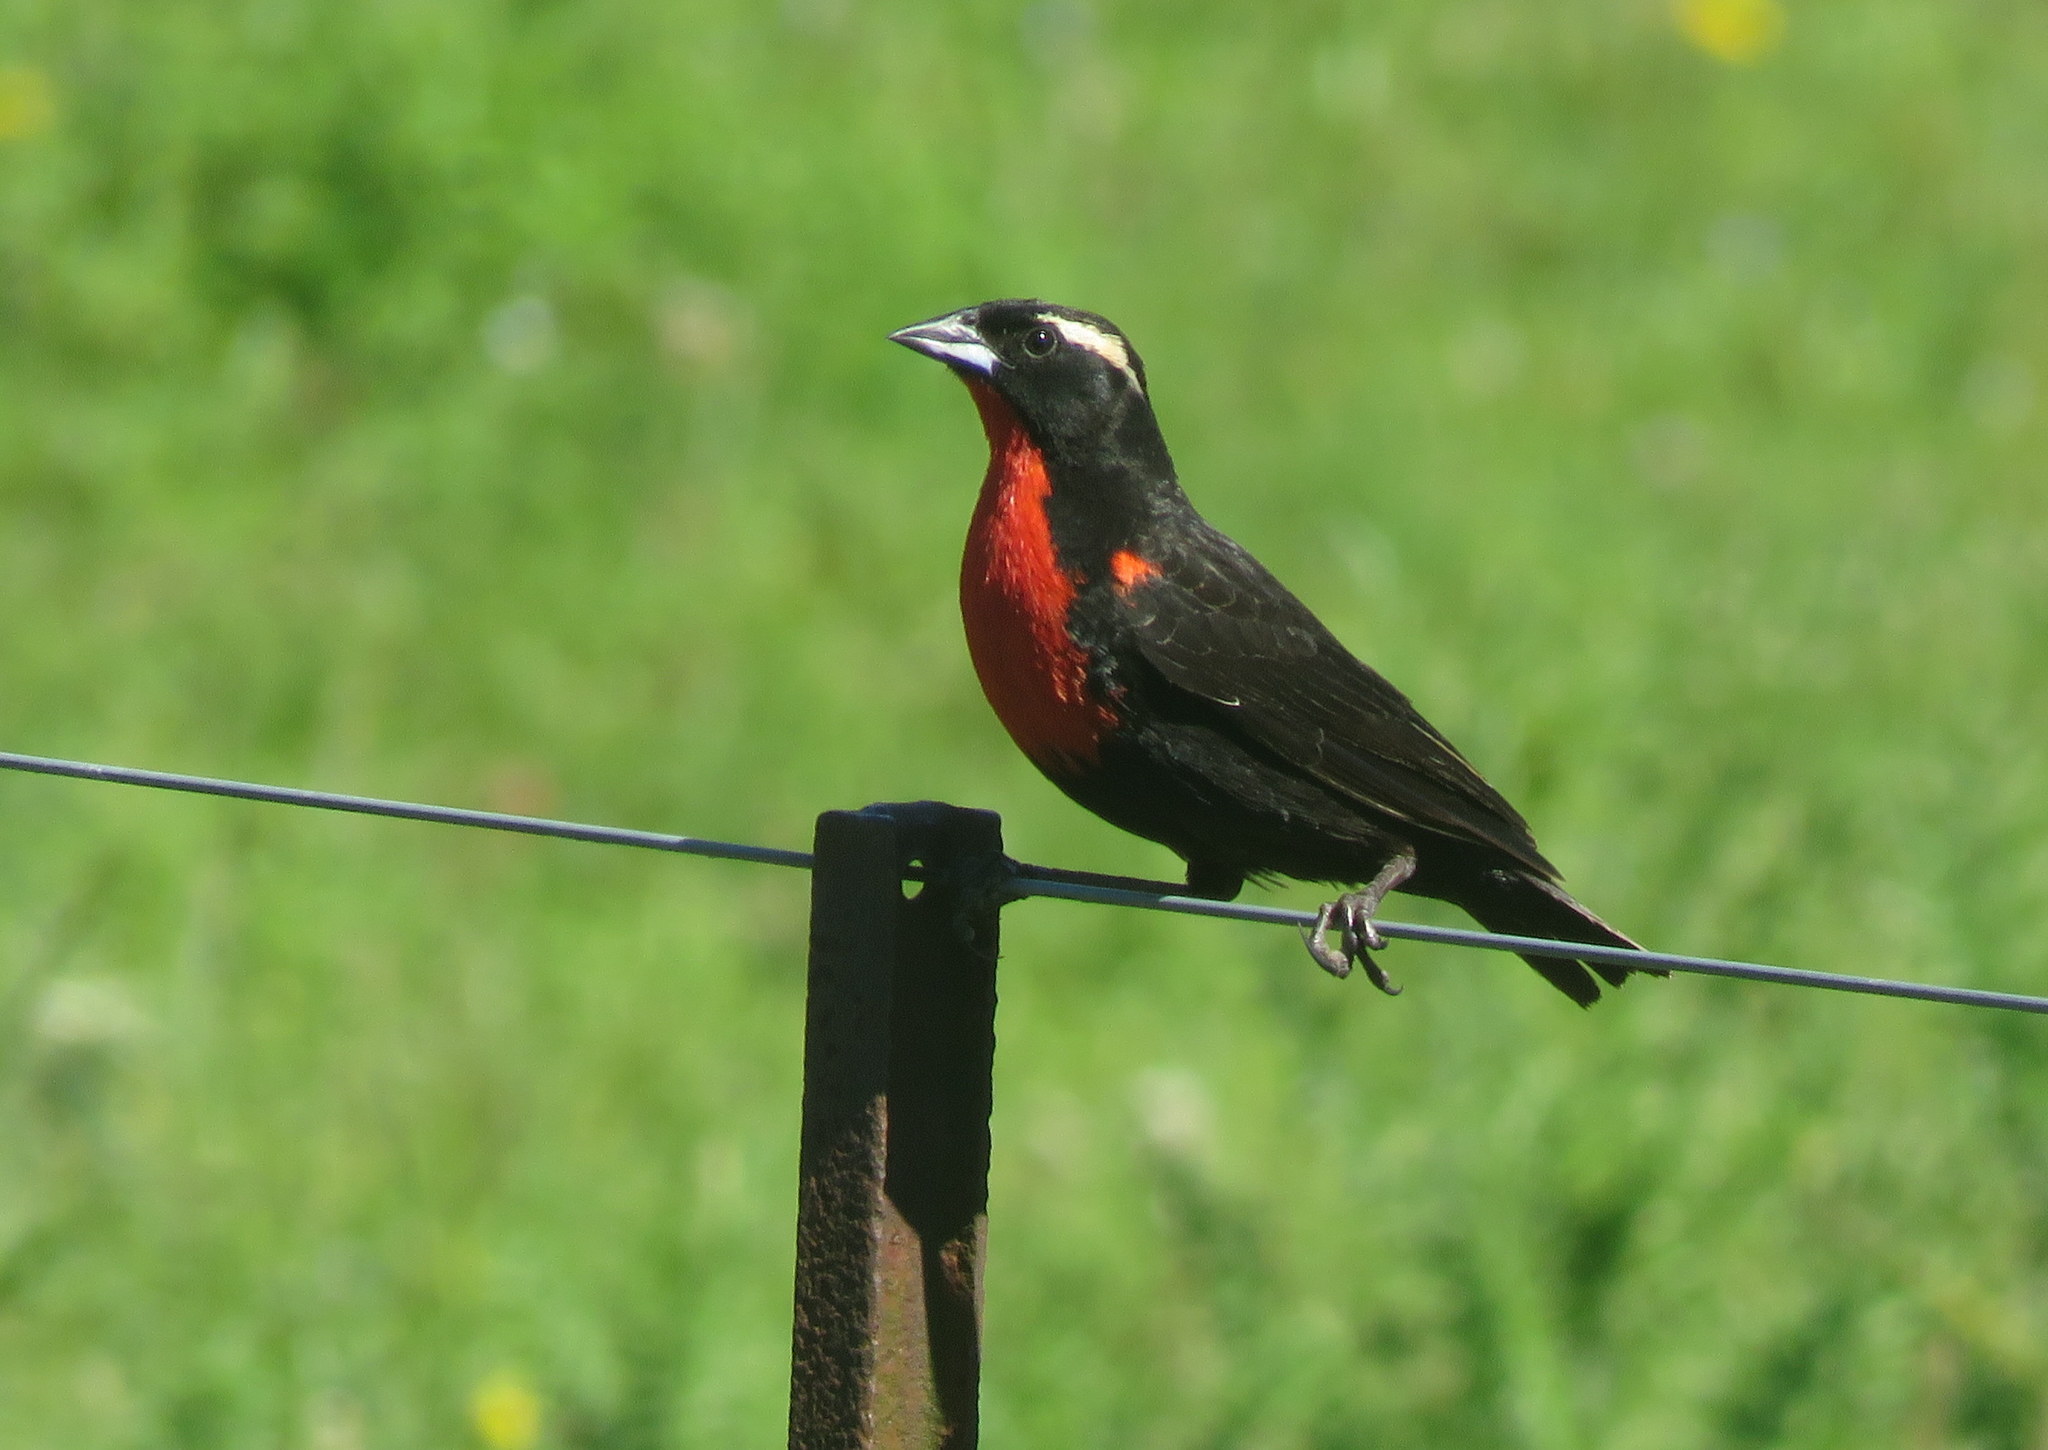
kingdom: Animalia
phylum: Chordata
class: Aves
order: Passeriformes
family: Icteridae
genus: Sturnella
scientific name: Sturnella superciliaris
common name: White-browed blackbird
